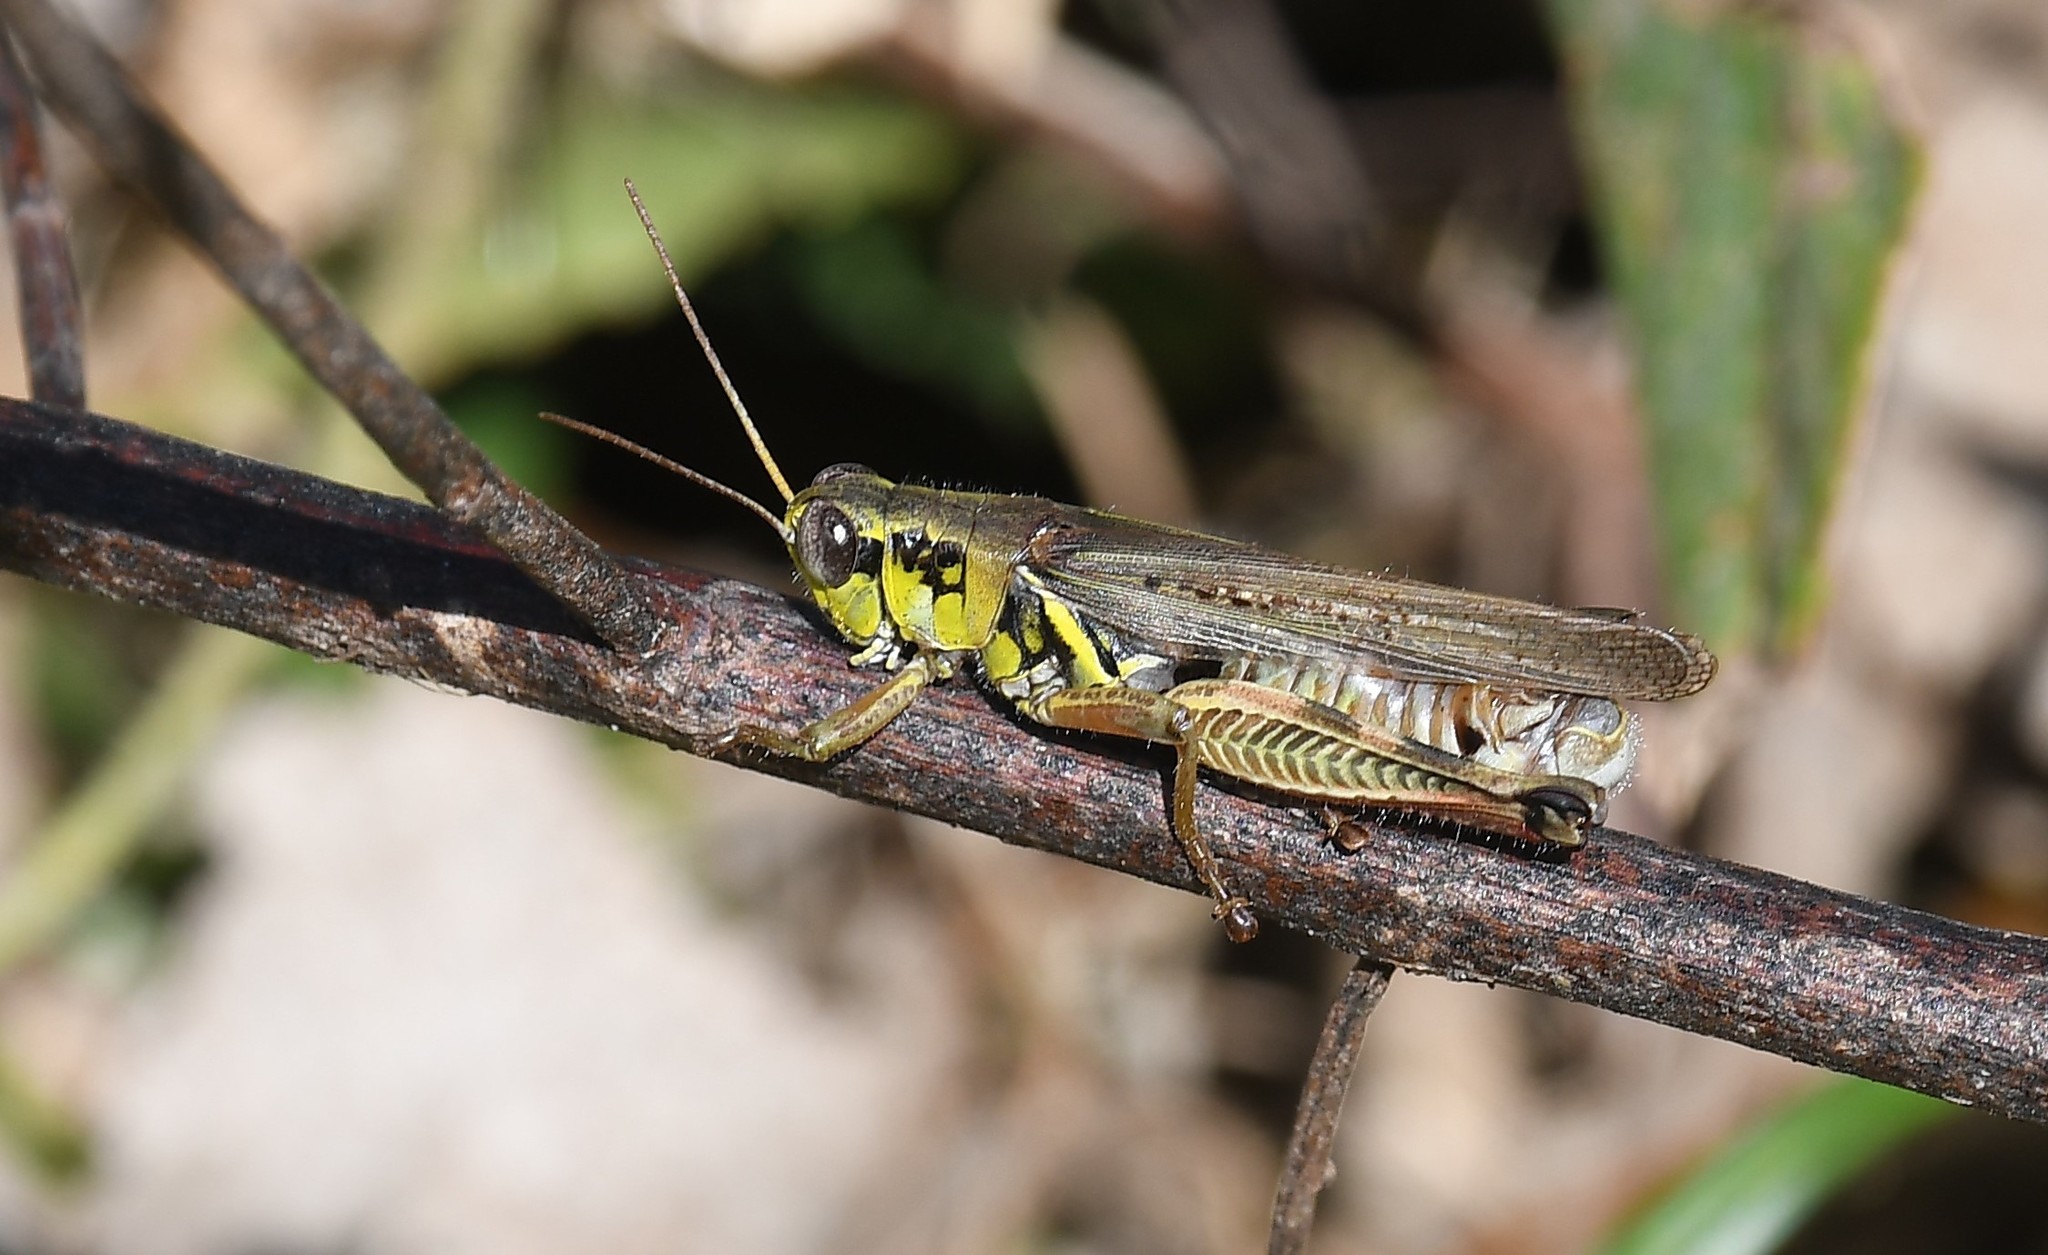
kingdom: Animalia
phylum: Arthropoda
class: Insecta
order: Orthoptera
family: Acrididae
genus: Melanoplus
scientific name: Melanoplus femurrubrum
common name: Red-legged grasshopper
